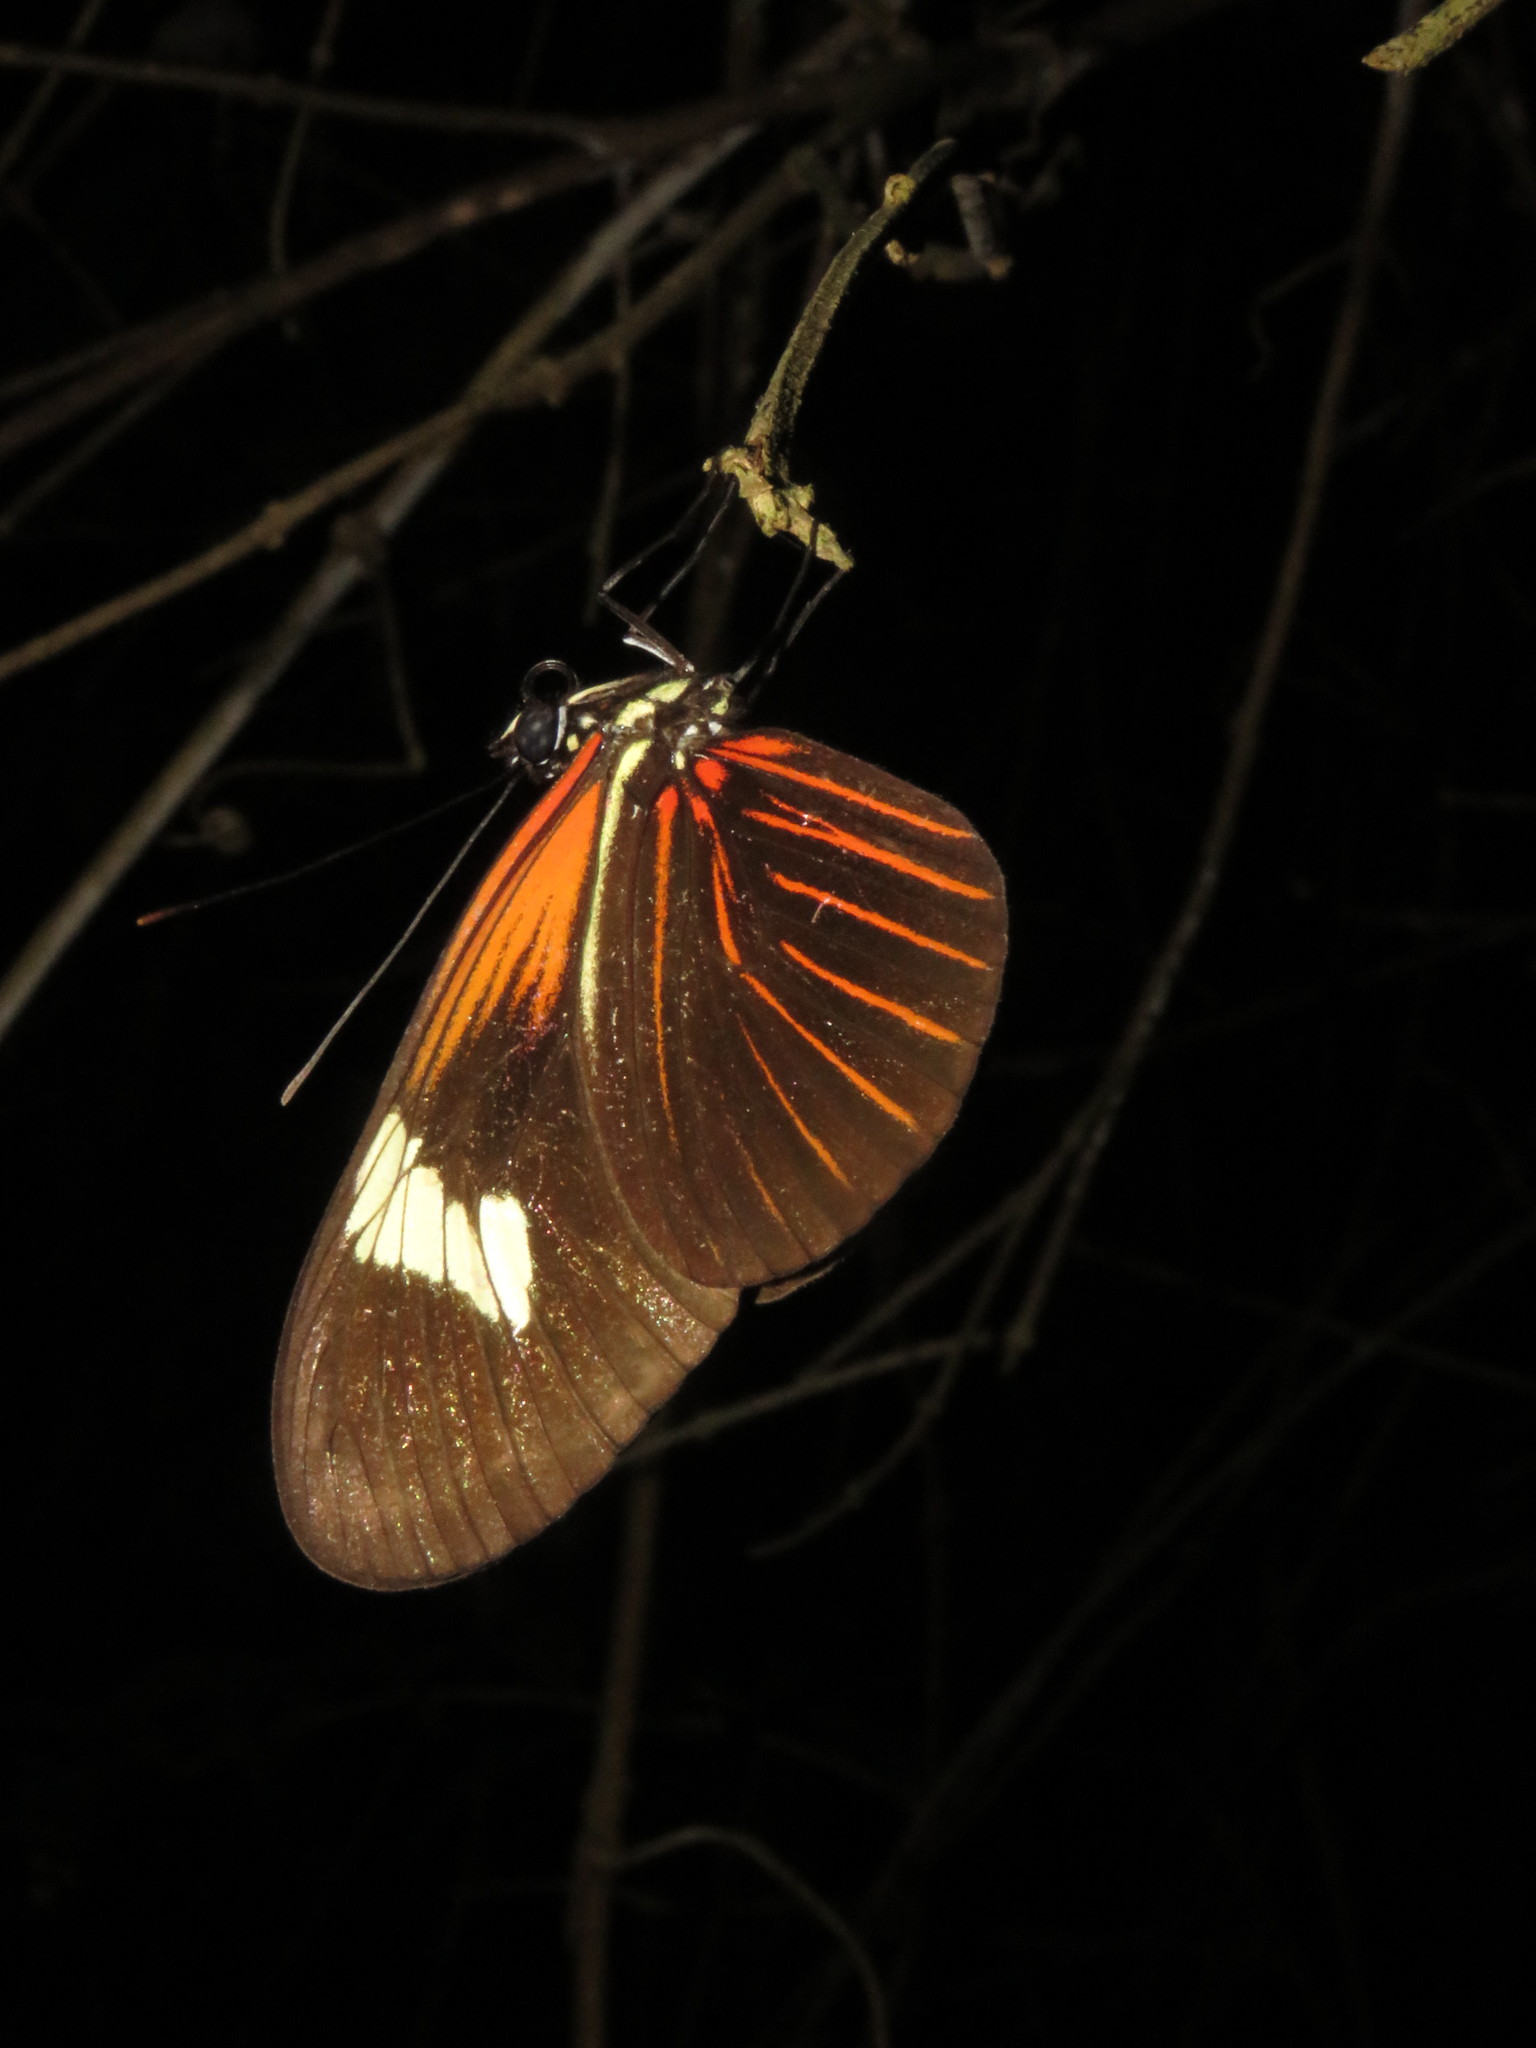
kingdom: Animalia
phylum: Arthropoda
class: Insecta
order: Lepidoptera
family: Nymphalidae
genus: Heliconius
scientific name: Heliconius erato
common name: Common patch longwing
